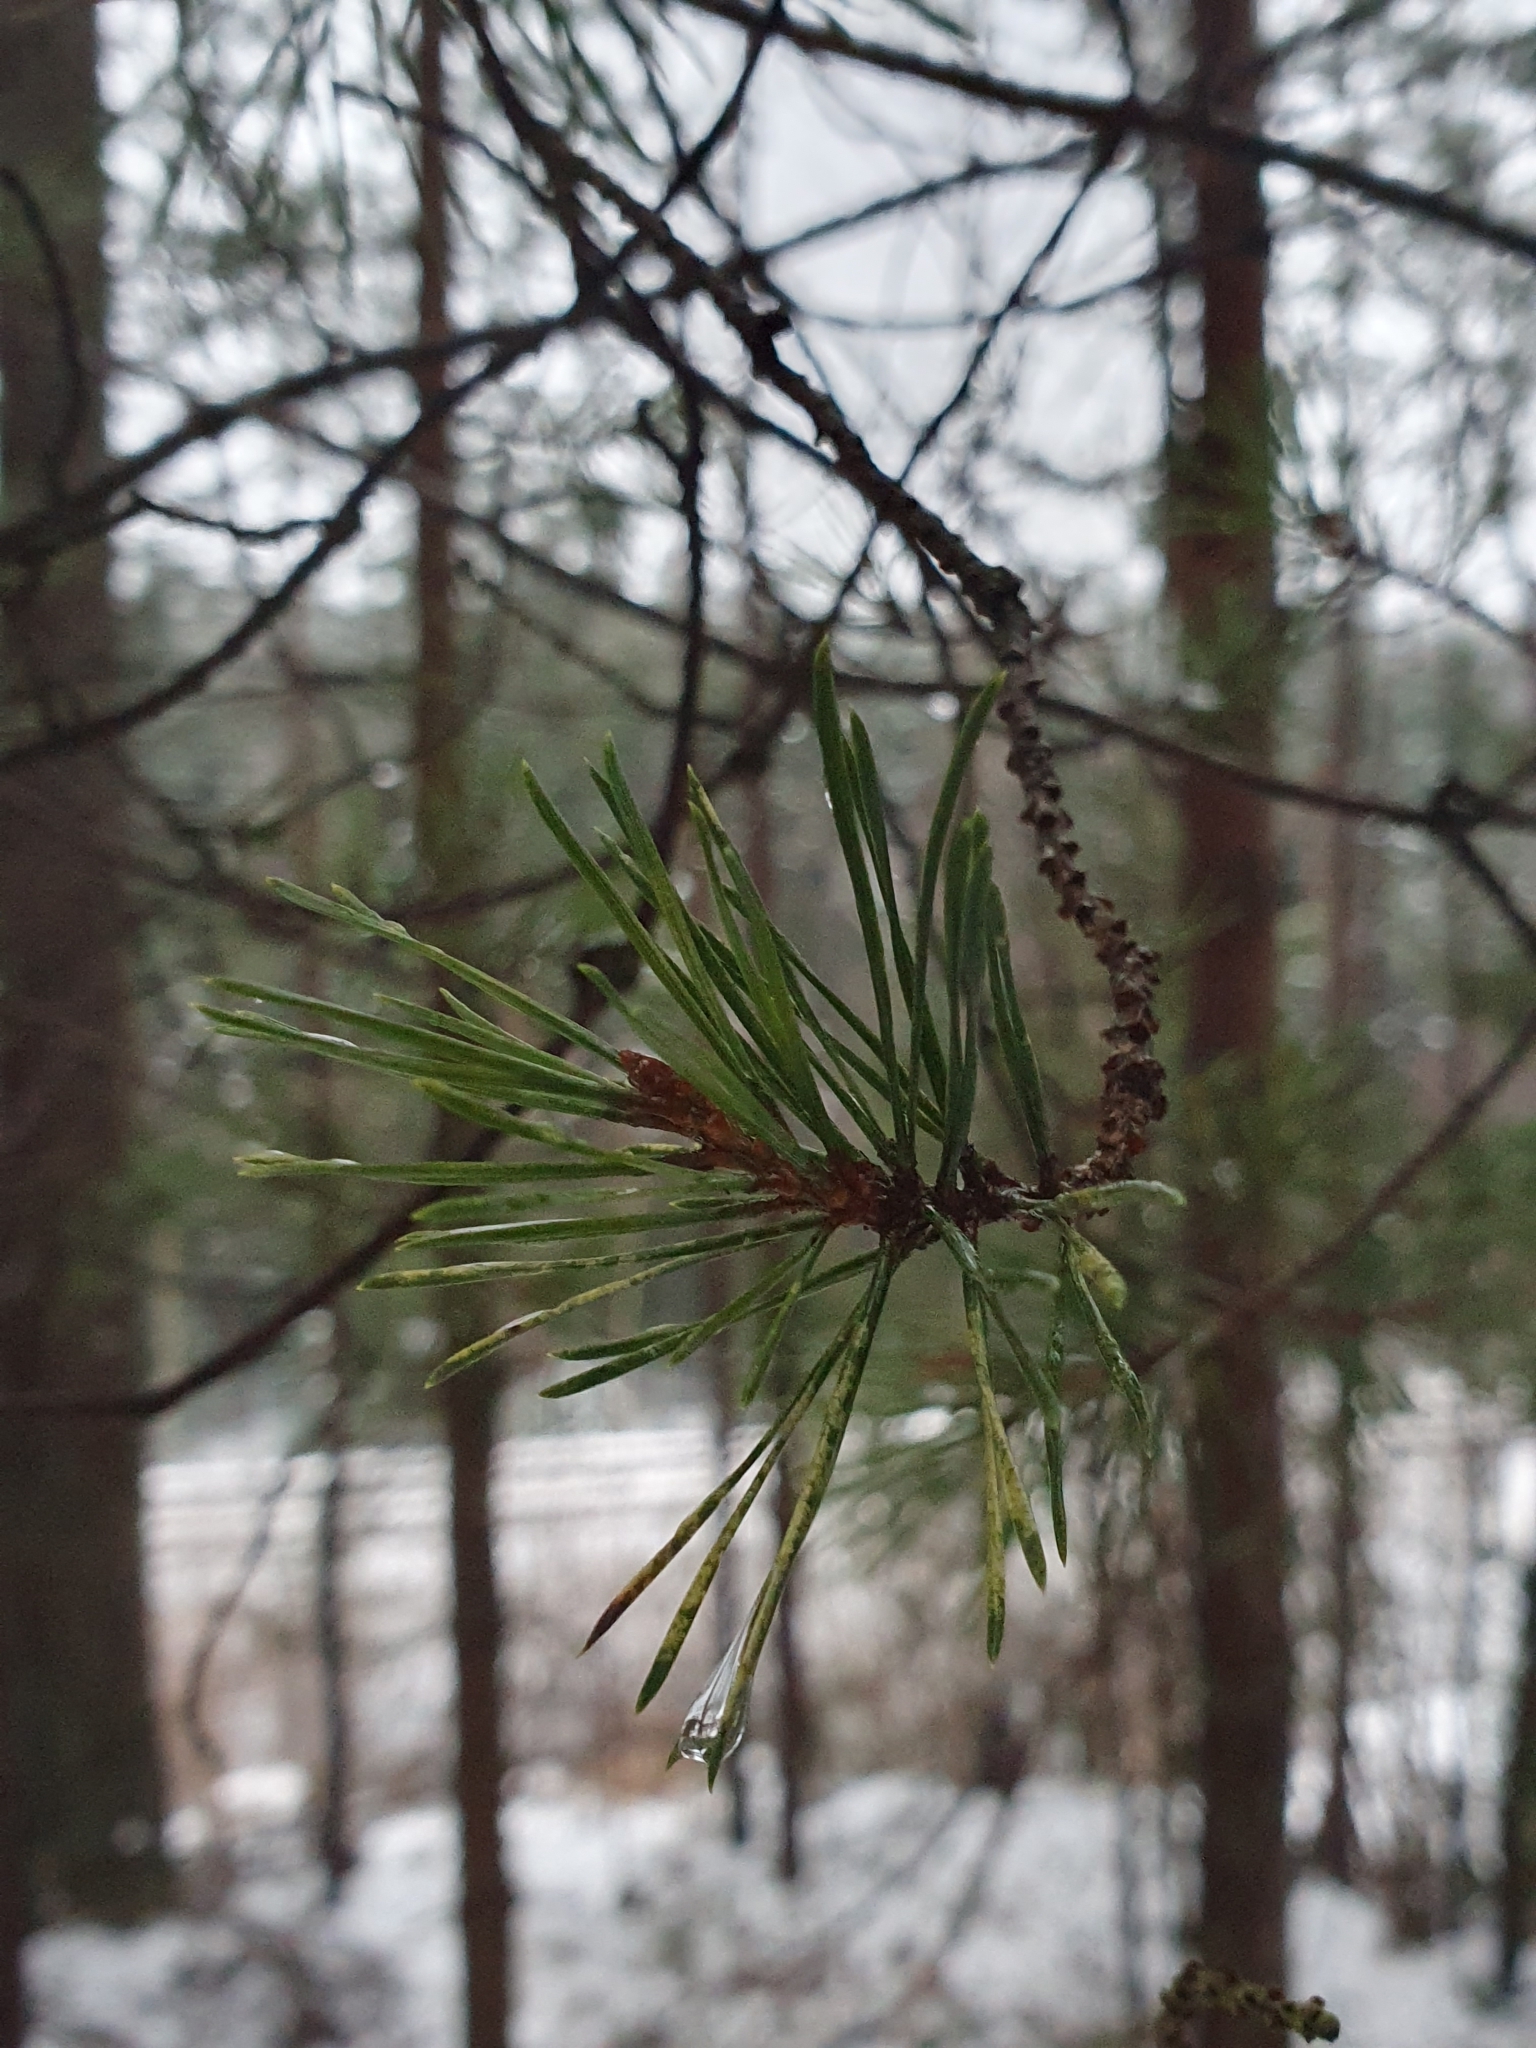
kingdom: Plantae
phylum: Tracheophyta
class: Pinopsida
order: Pinales
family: Pinaceae
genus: Pinus
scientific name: Pinus sylvestris
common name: Scots pine
